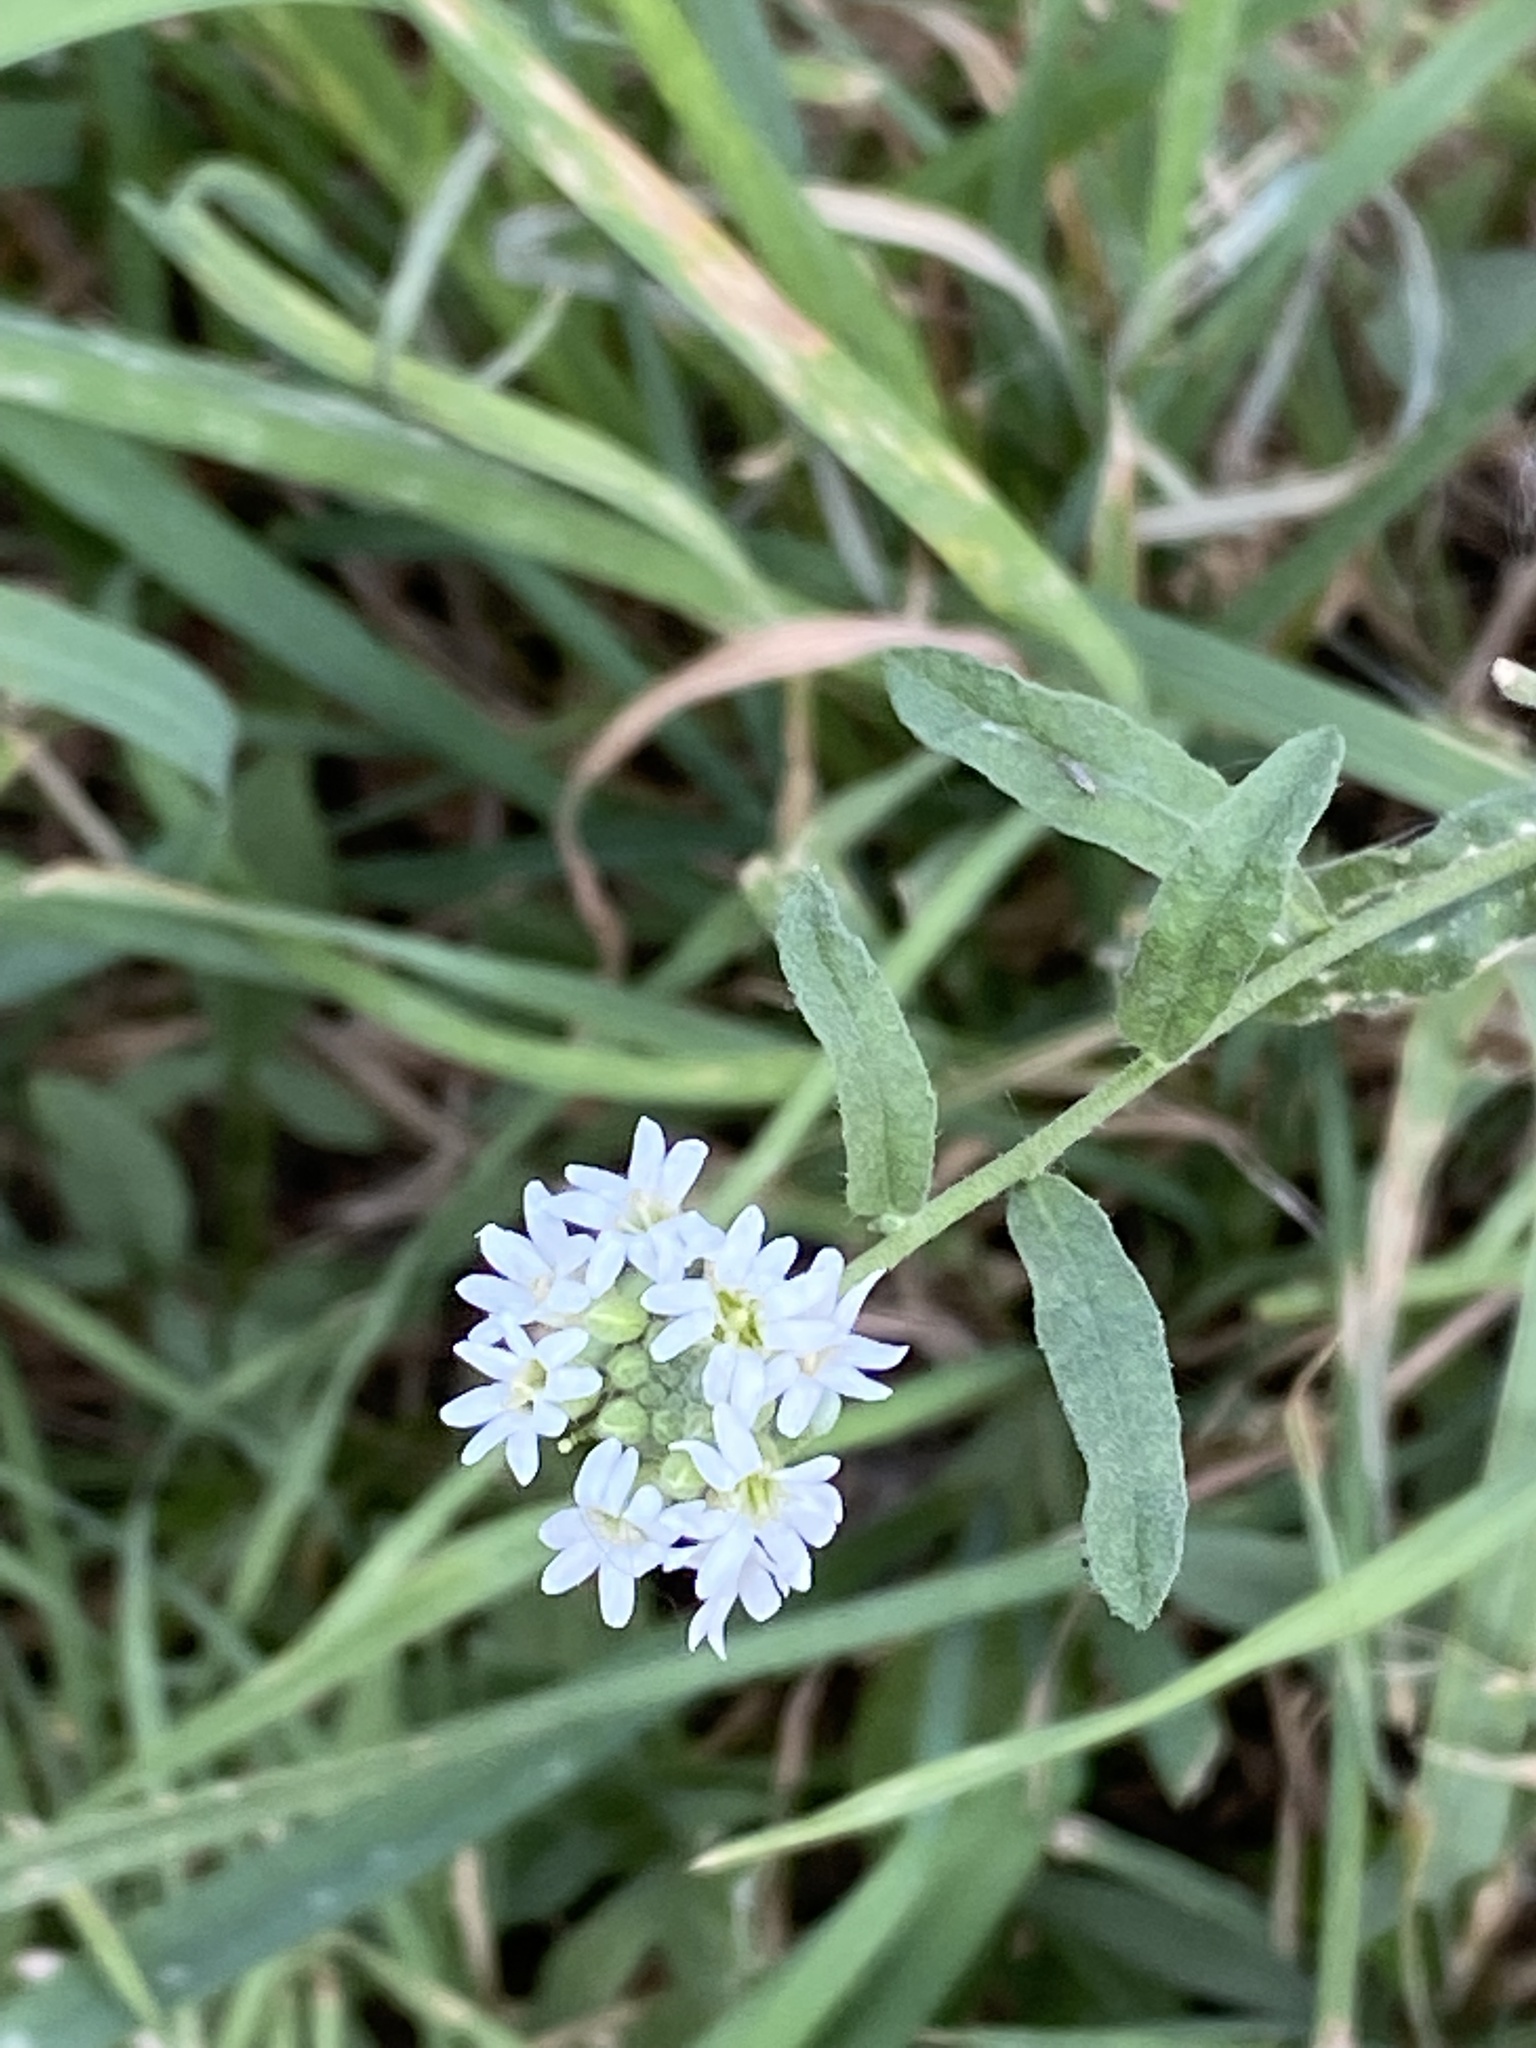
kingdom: Plantae
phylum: Tracheophyta
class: Magnoliopsida
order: Brassicales
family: Brassicaceae
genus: Berteroa
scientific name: Berteroa incana
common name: Hoary alison
